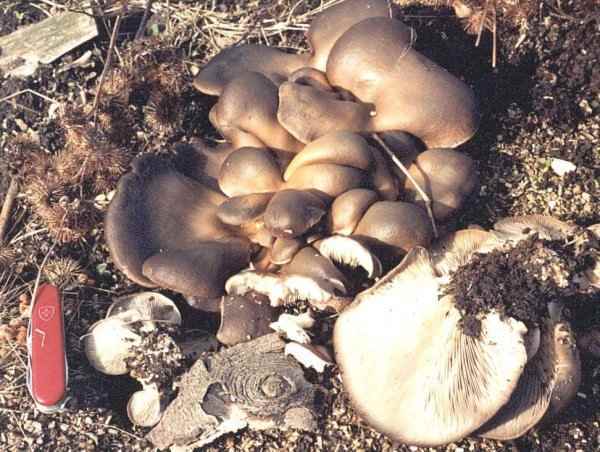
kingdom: Fungi
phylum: Basidiomycota
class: Agaricomycetes
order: Agaricales
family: Pleurotaceae
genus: Pleurotus
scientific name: Pleurotus ostreatus
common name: Oyster mushroom
